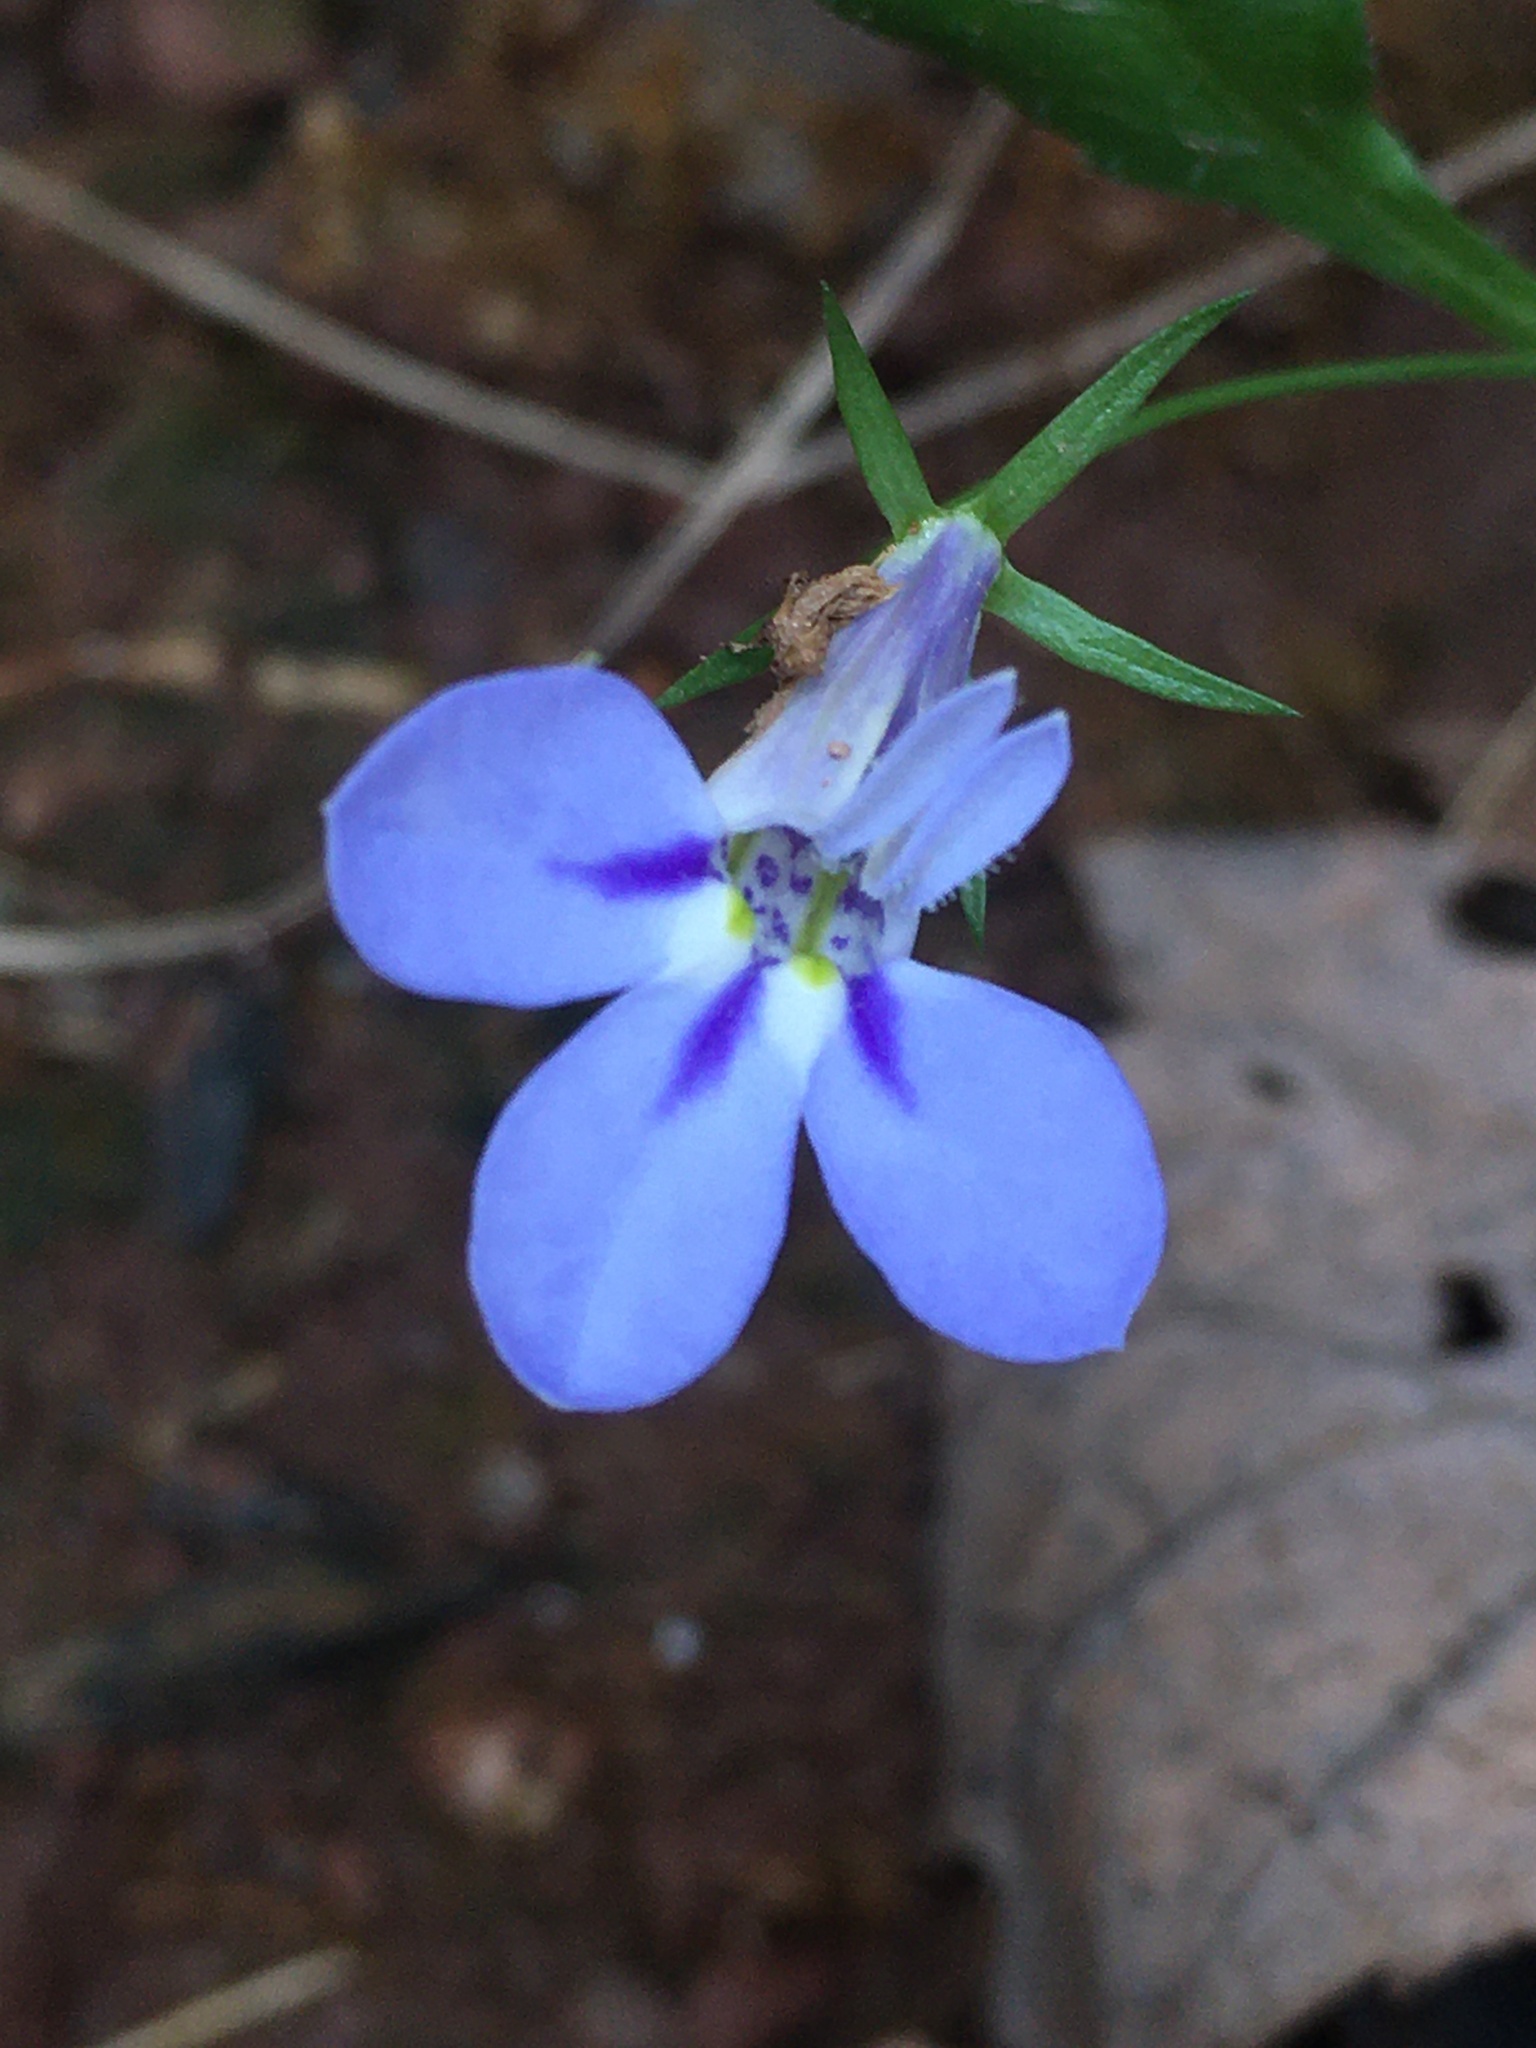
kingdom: Plantae
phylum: Tracheophyta
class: Magnoliopsida
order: Asterales
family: Campanulaceae
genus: Lobelia
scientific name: Lobelia erinus
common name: Edging lobelia
